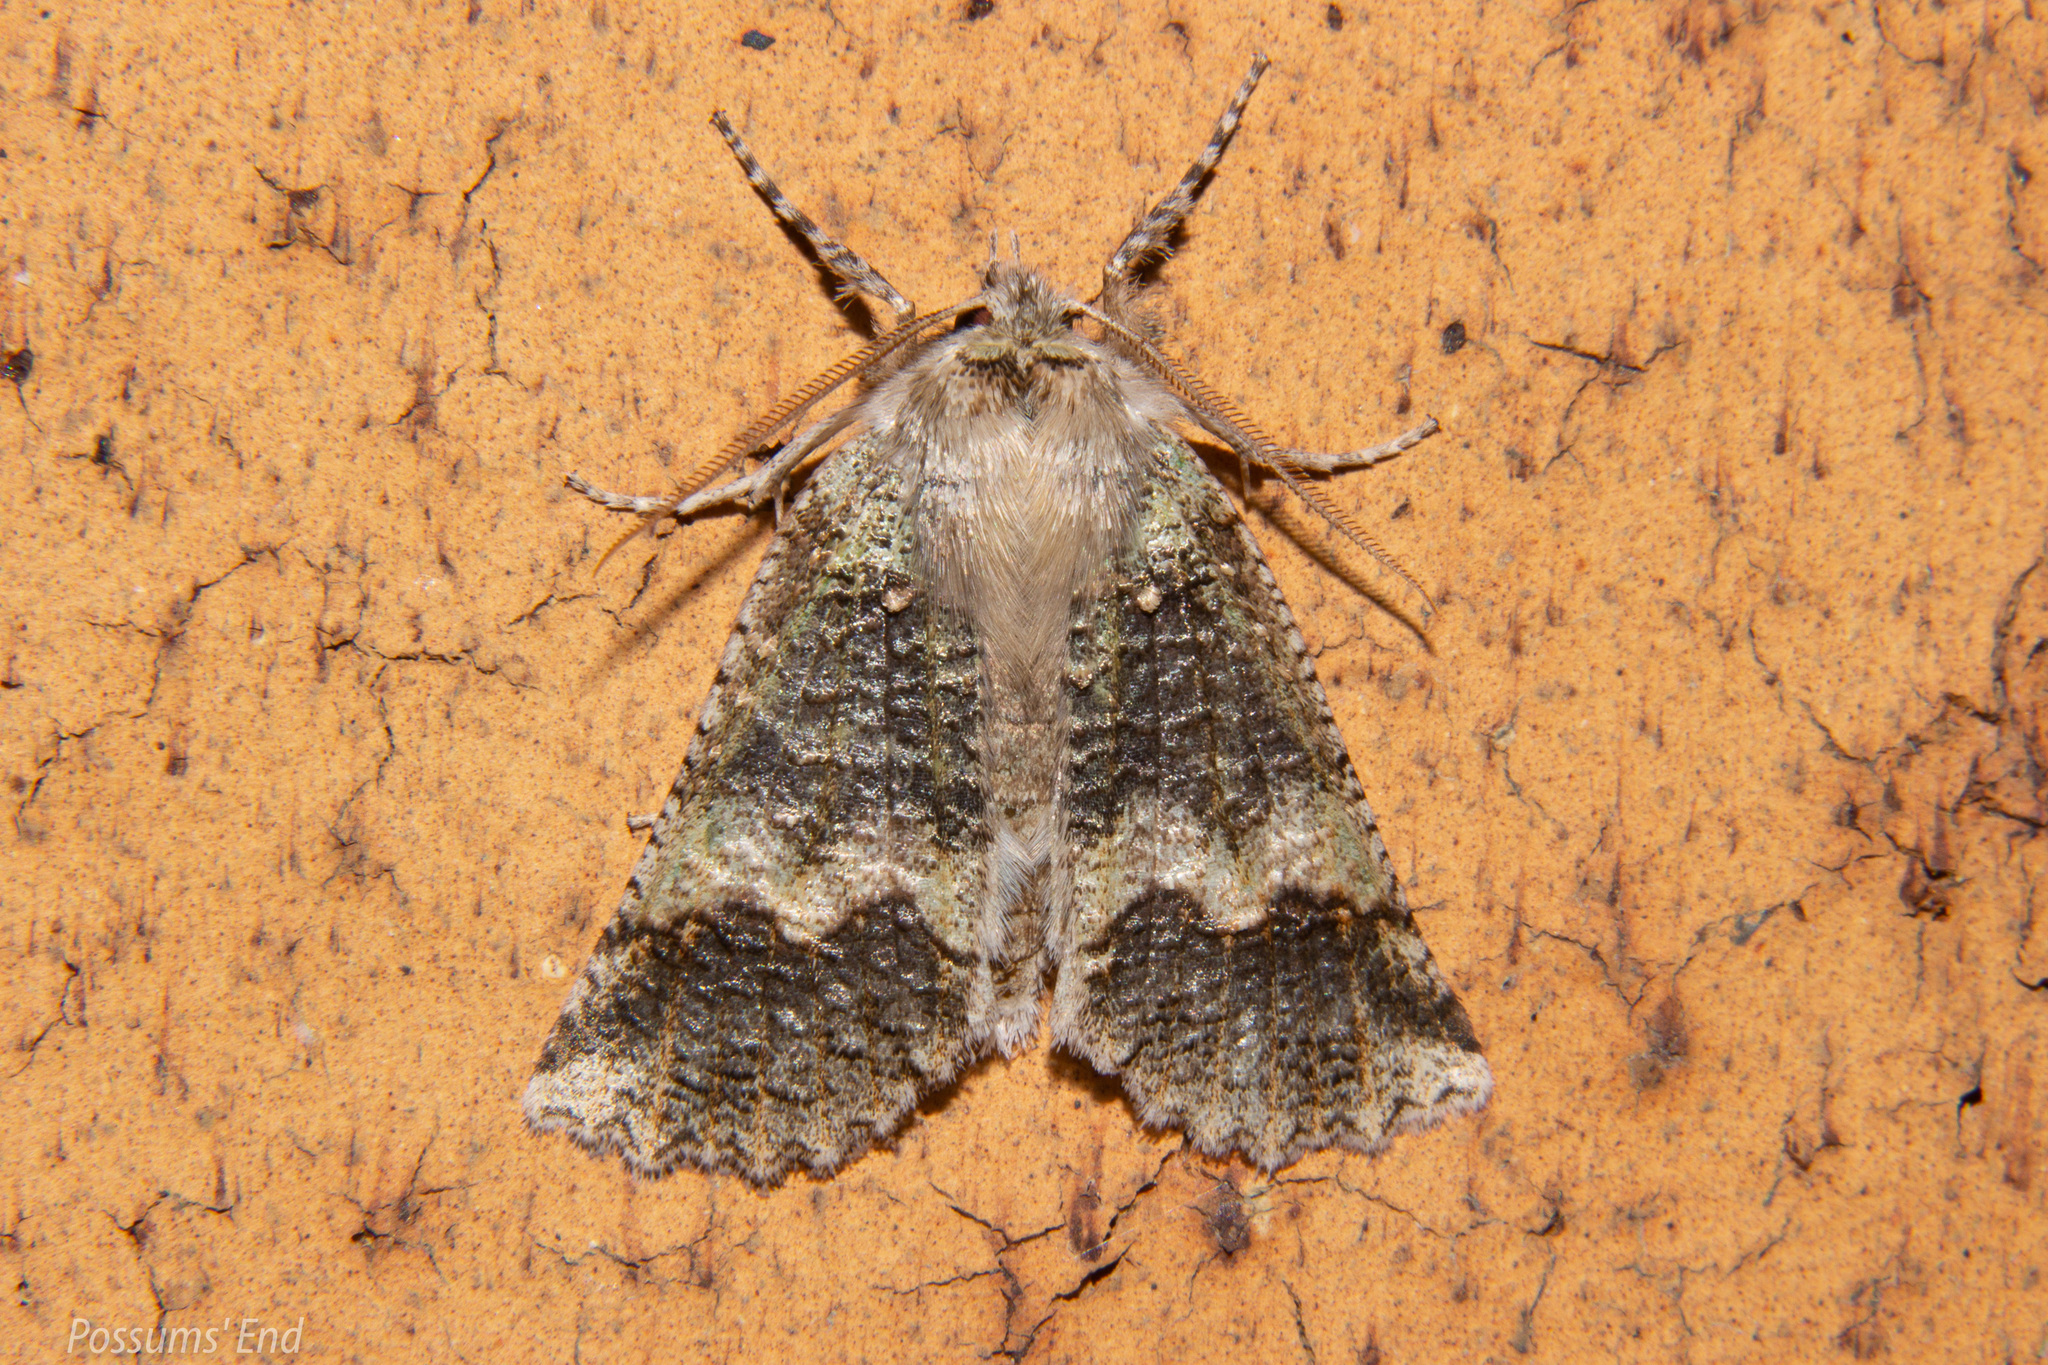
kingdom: Animalia
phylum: Arthropoda
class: Insecta
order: Lepidoptera
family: Geometridae
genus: Declana
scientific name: Declana floccosa
